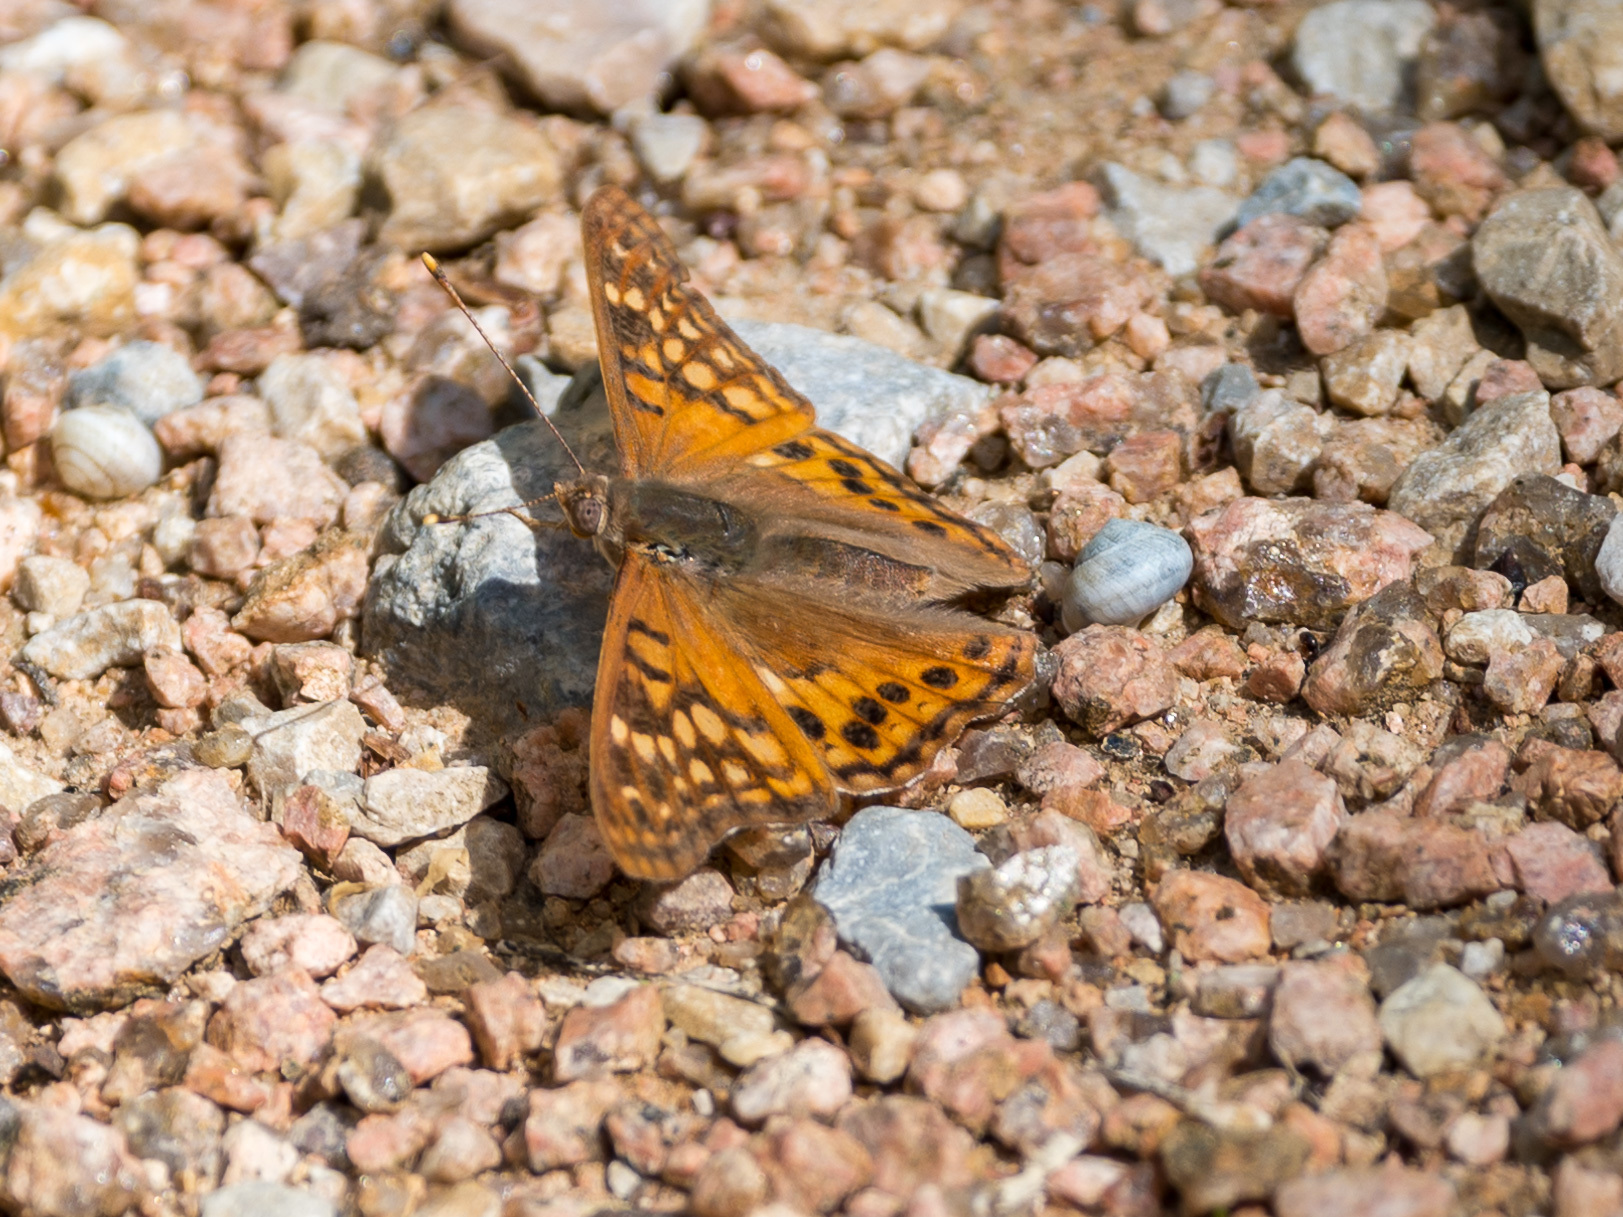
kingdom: Animalia
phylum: Arthropoda
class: Insecta
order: Lepidoptera
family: Nymphalidae
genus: Asterocampa
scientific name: Asterocampa clyton
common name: Tawny emperor
